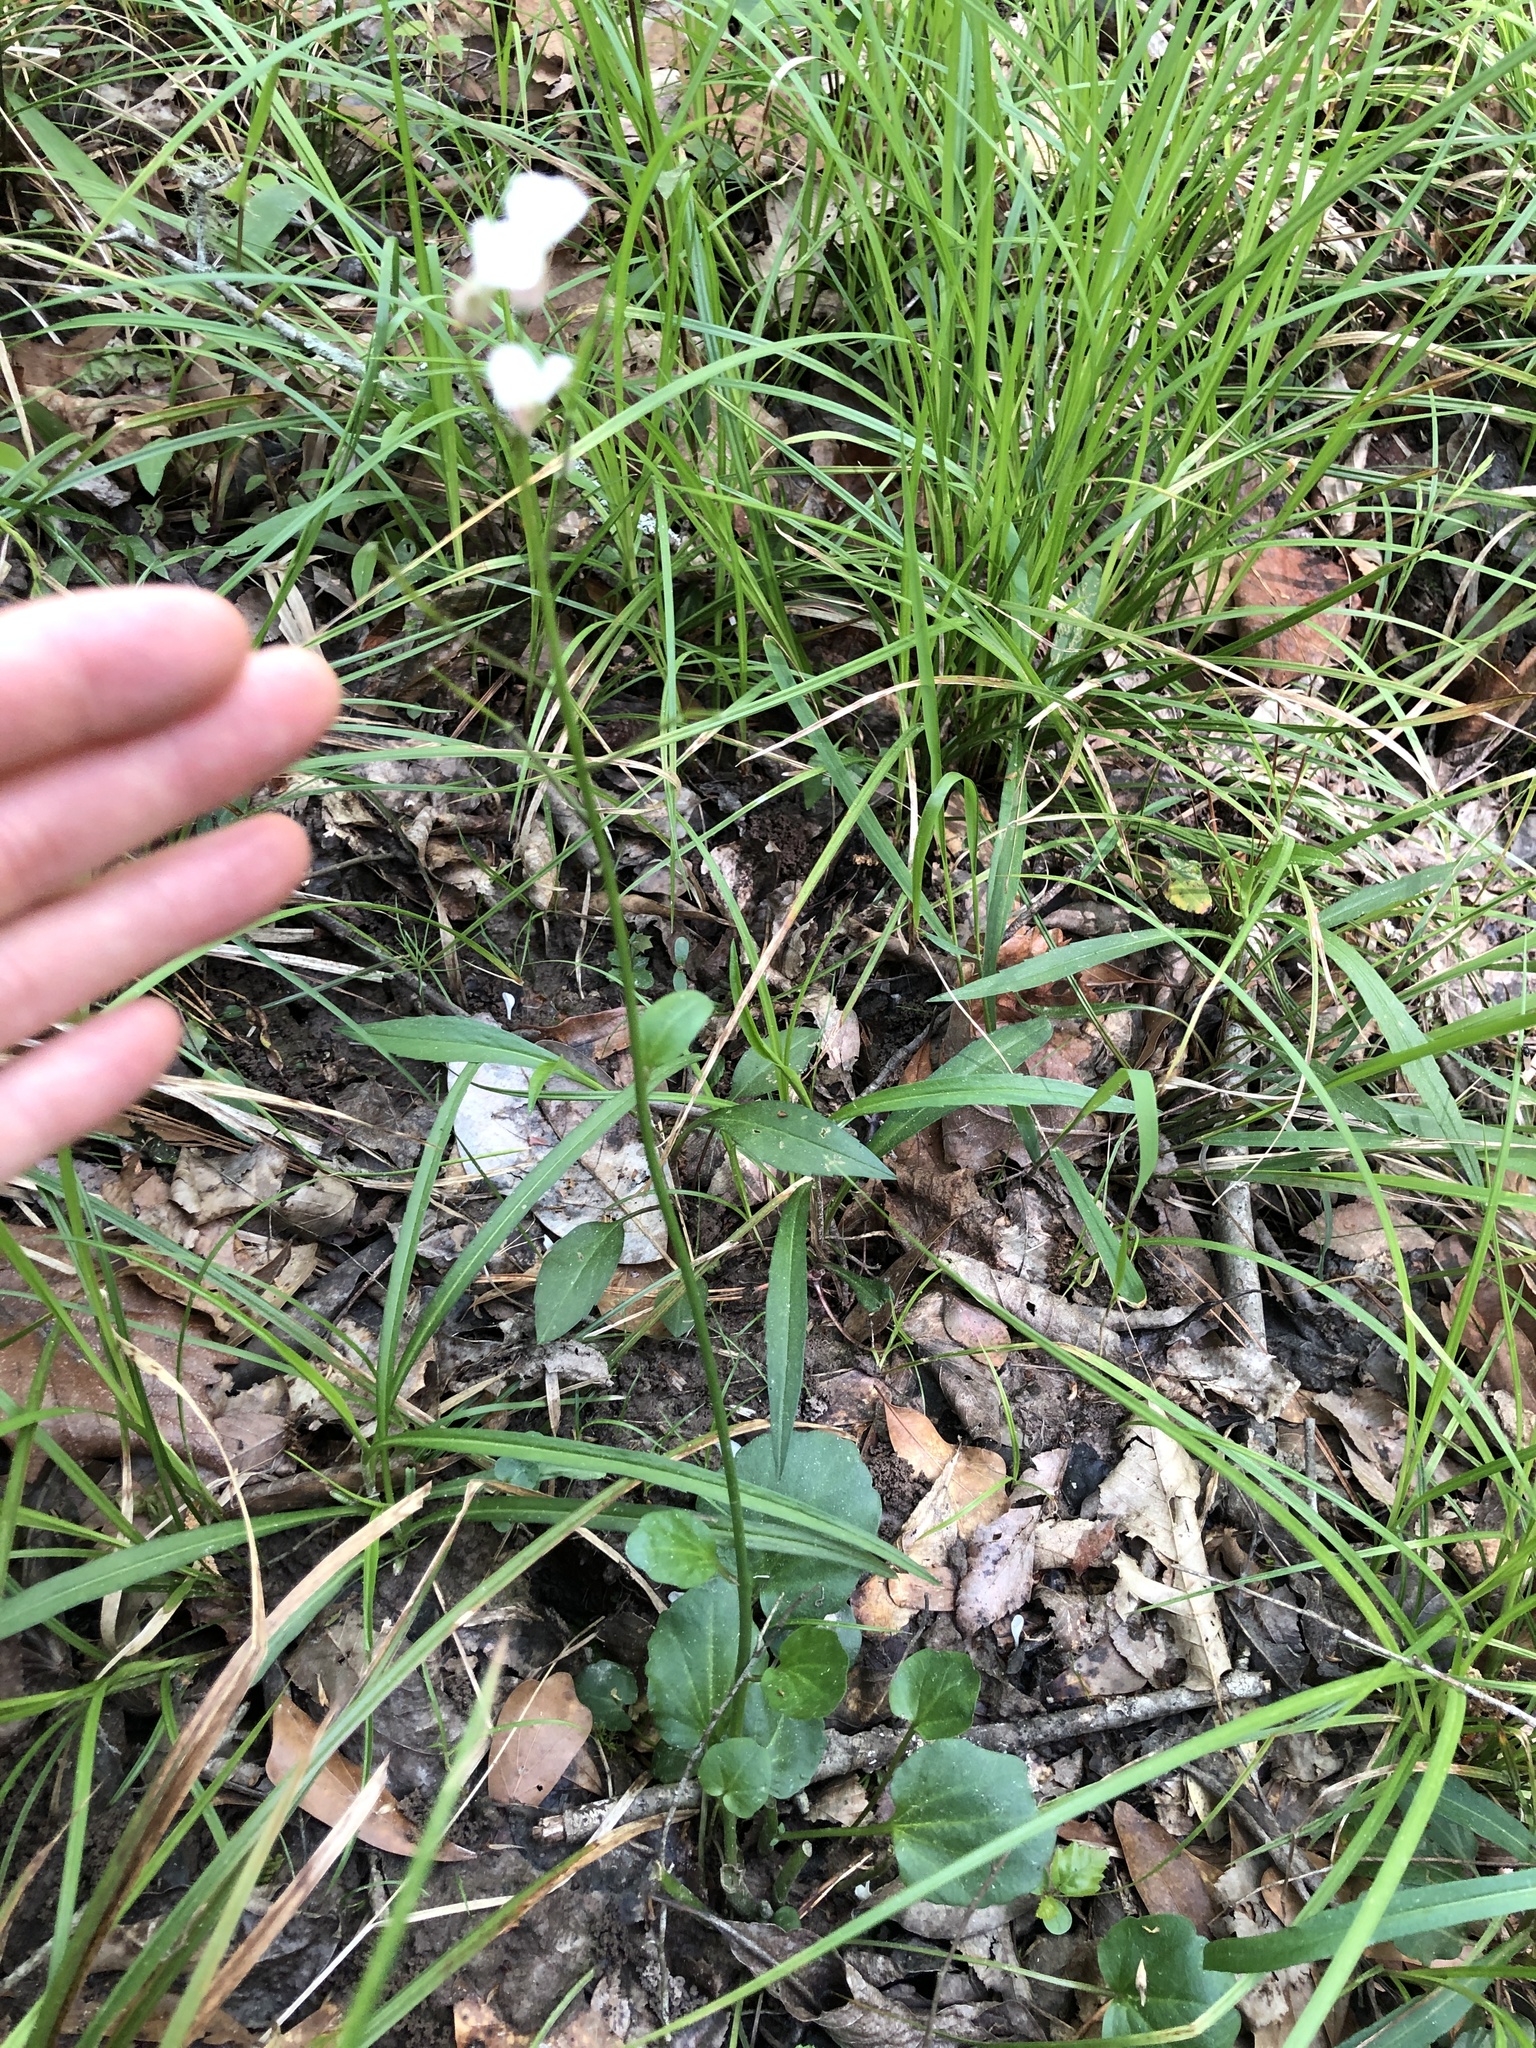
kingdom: Plantae
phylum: Tracheophyta
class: Magnoliopsida
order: Brassicales
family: Brassicaceae
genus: Cardamine
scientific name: Cardamine bulbosa
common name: Spring cress
